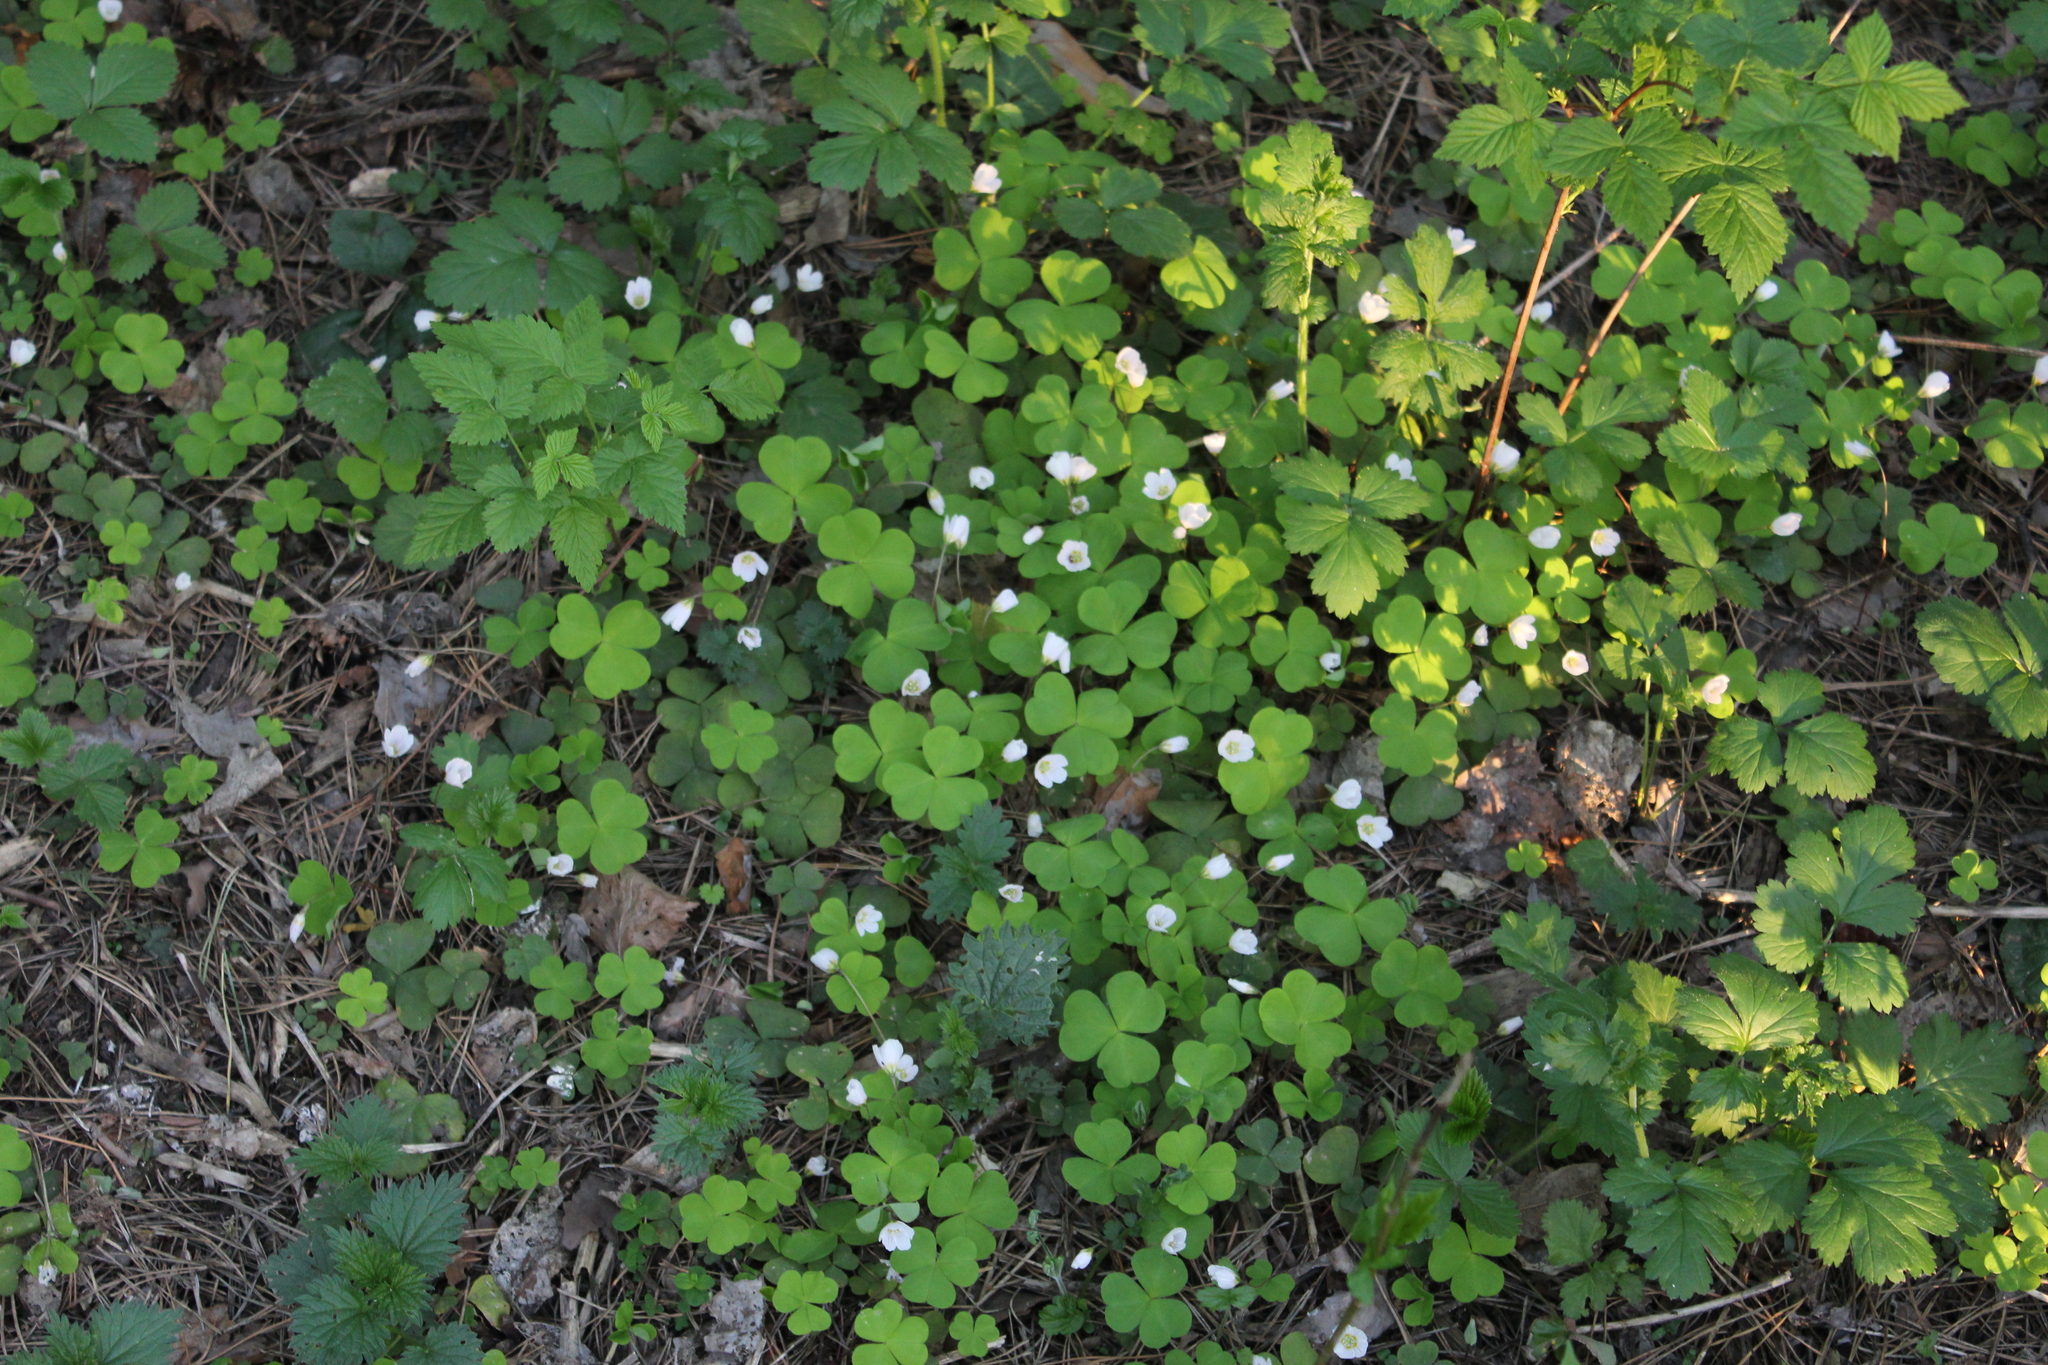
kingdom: Plantae
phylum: Tracheophyta
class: Magnoliopsida
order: Oxalidales
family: Oxalidaceae
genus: Oxalis
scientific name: Oxalis acetosella
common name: Wood-sorrel
